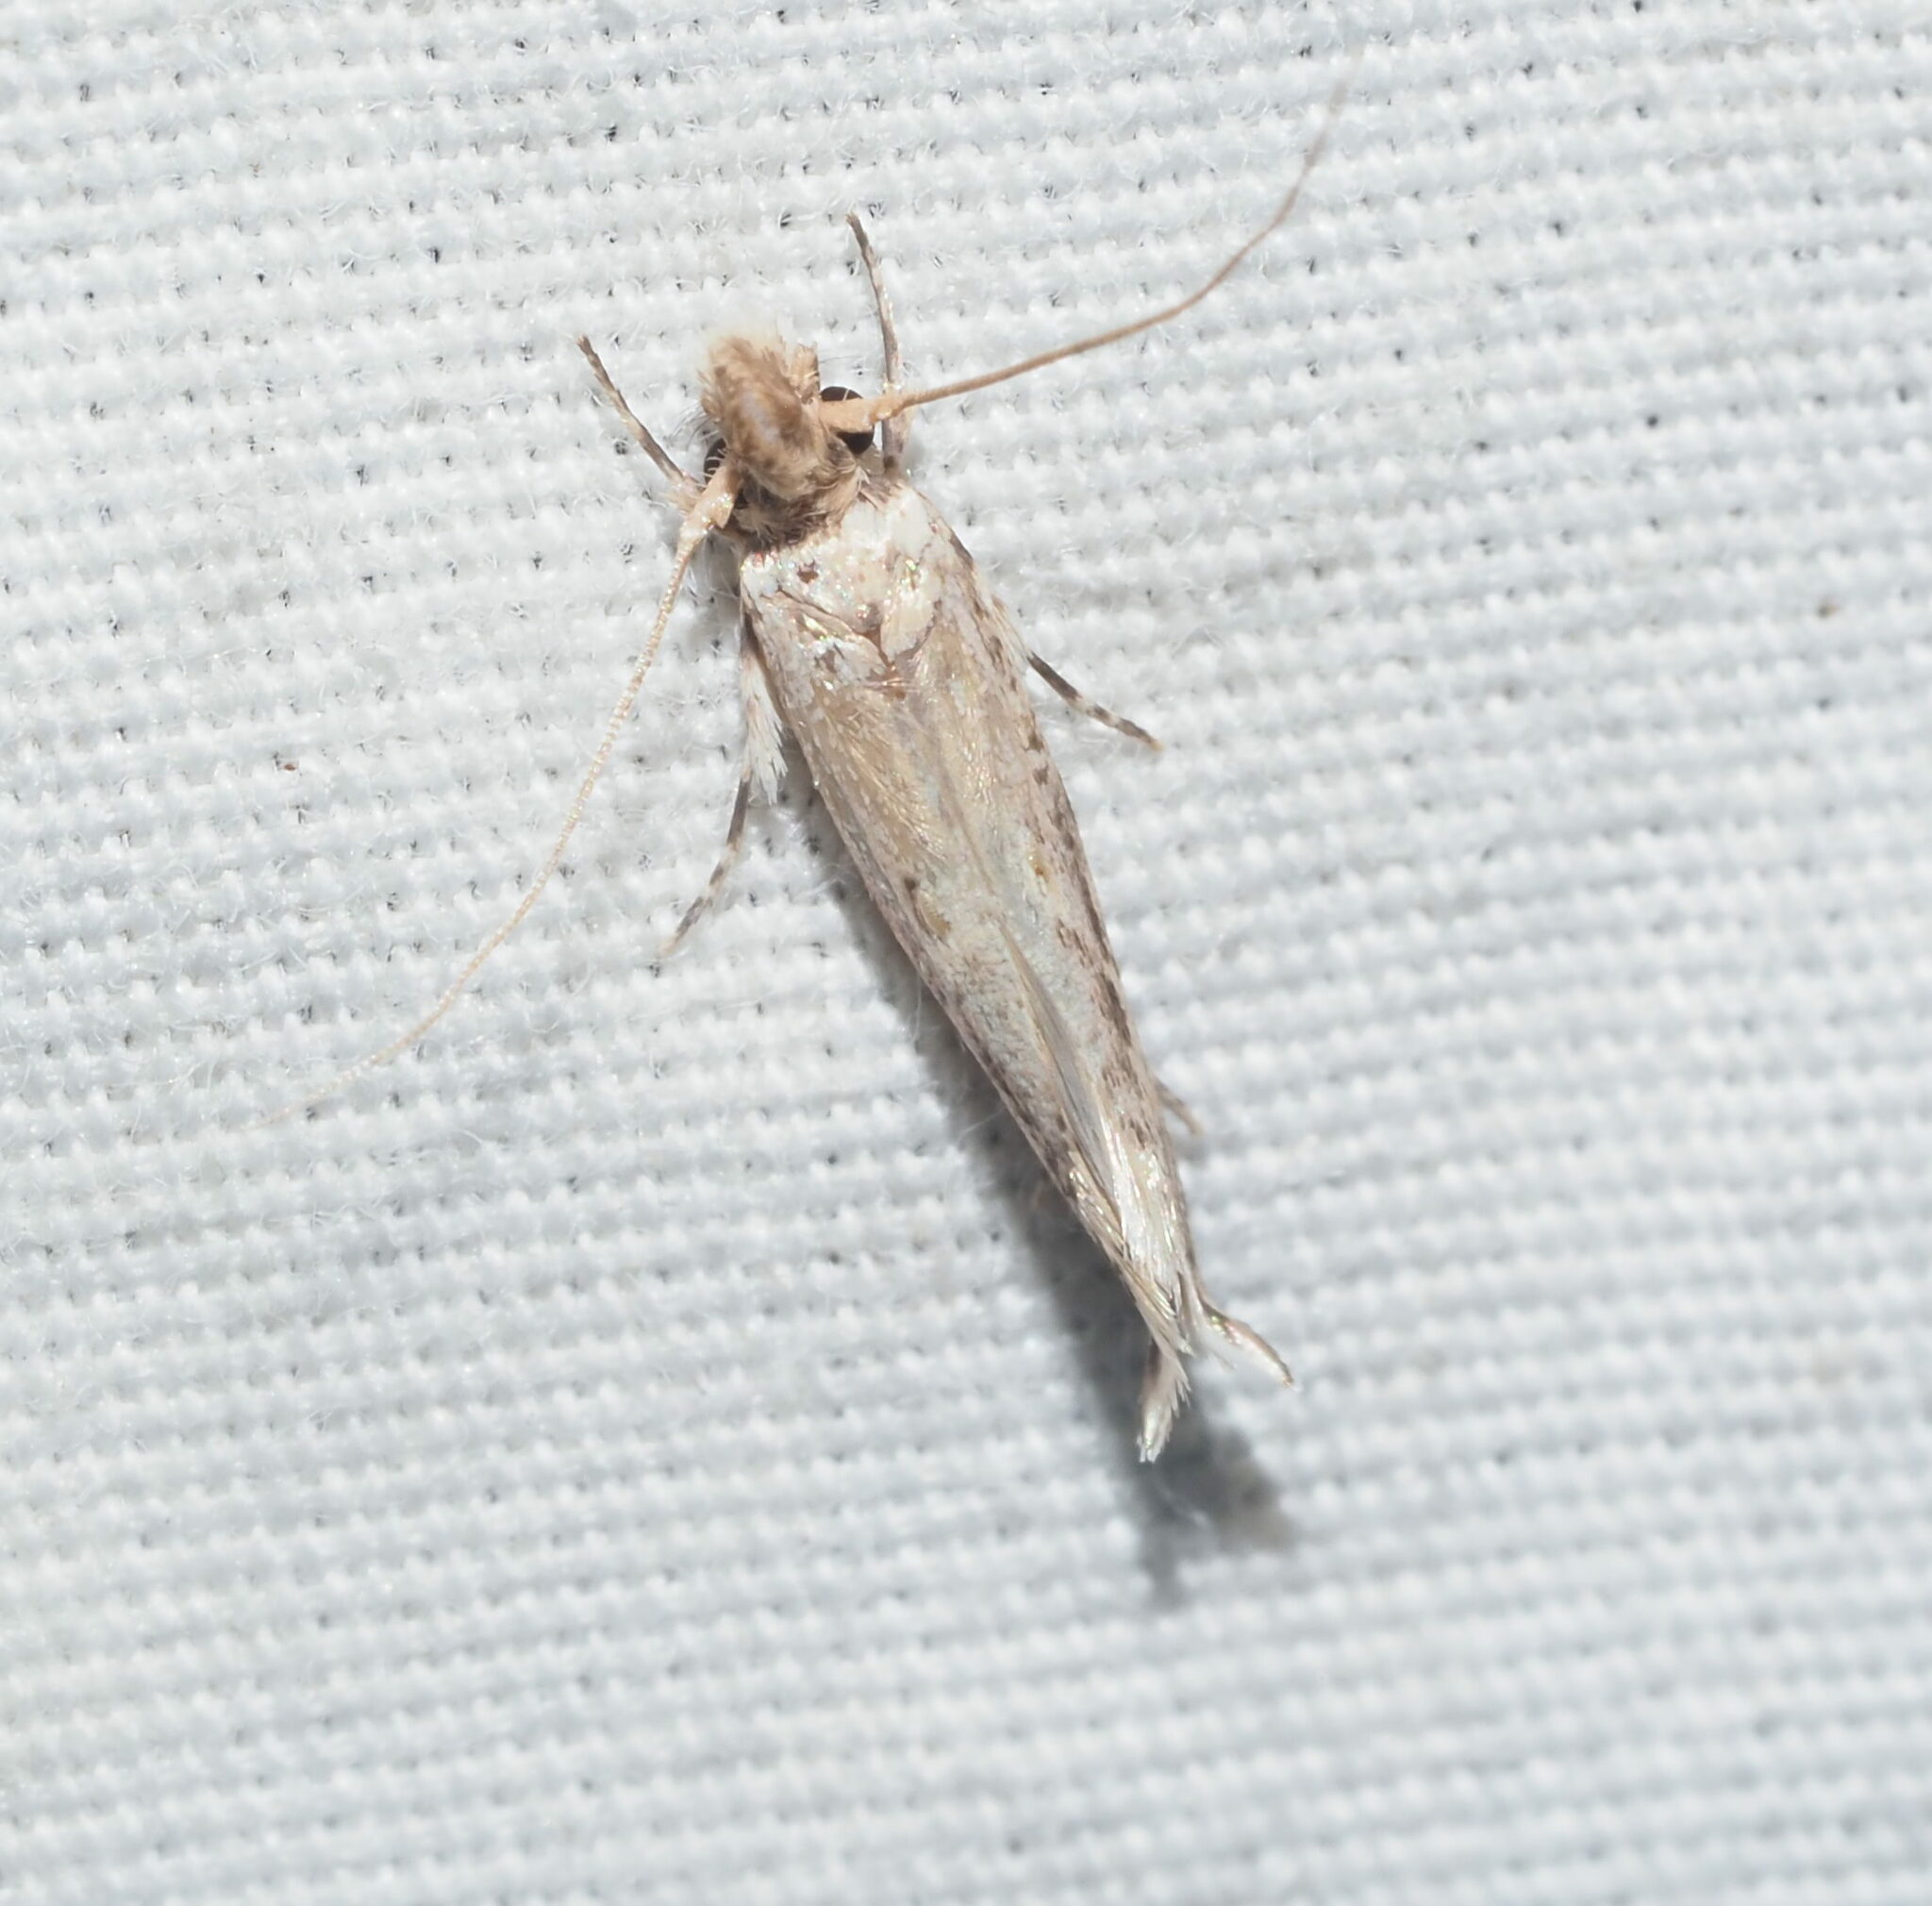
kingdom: Animalia
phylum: Arthropoda
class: Insecta
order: Lepidoptera
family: Tineidae
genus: Erechthias
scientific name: Erechthias pelotricha
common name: Fungus moth
